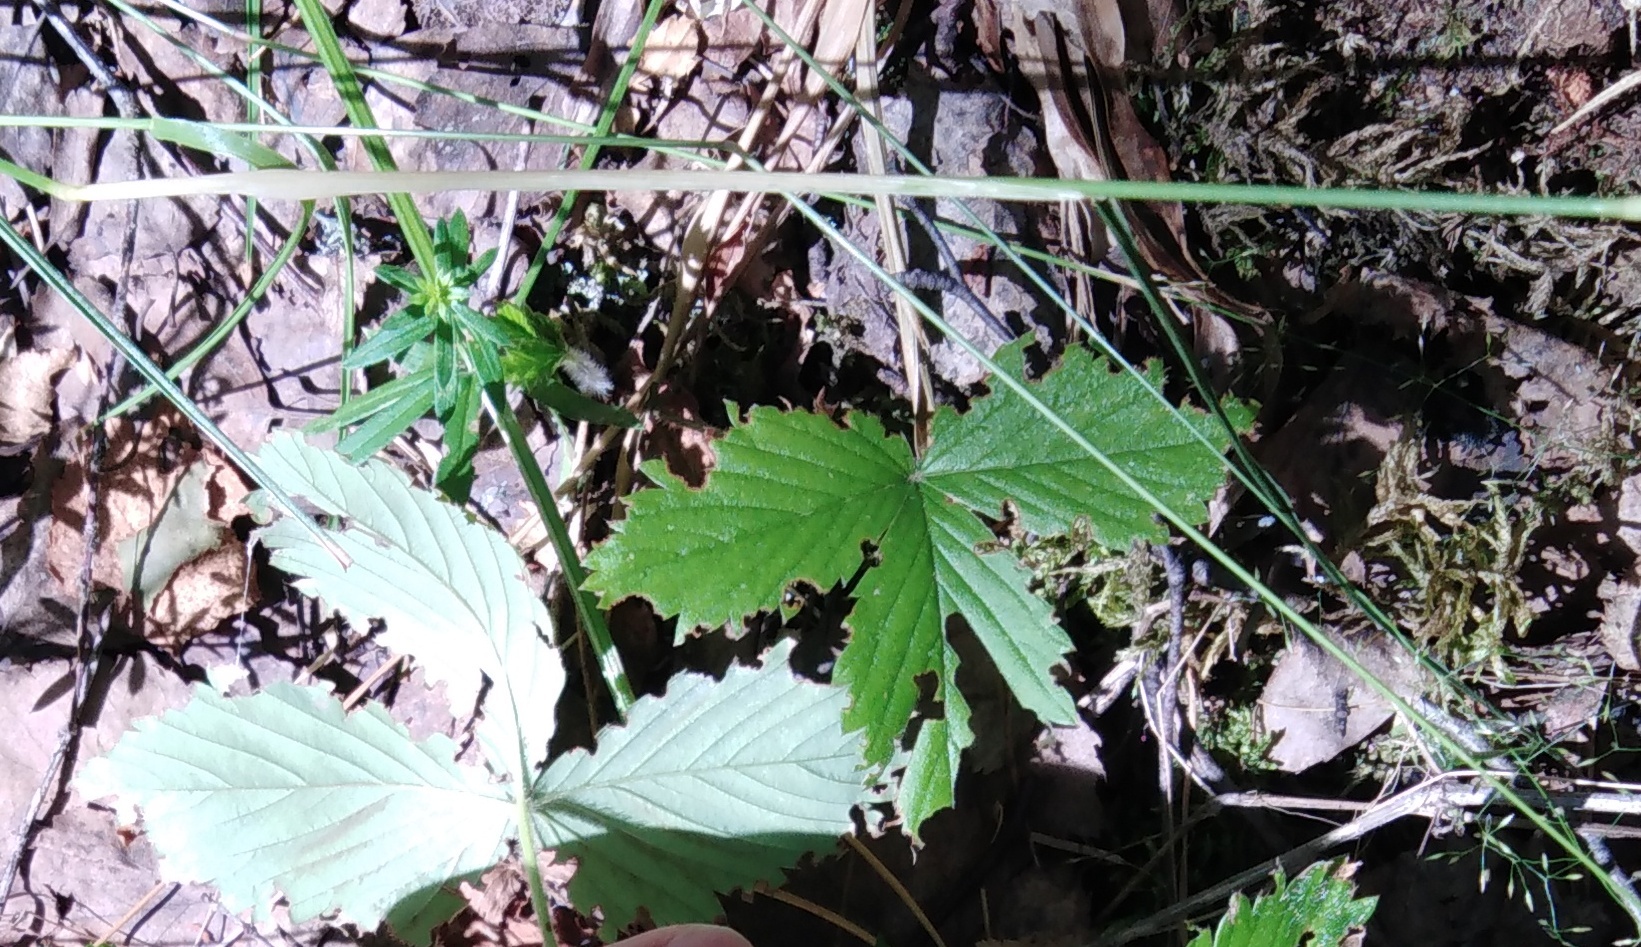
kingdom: Plantae
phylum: Tracheophyta
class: Magnoliopsida
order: Rosales
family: Rosaceae
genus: Fragaria
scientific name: Fragaria vesca
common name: Wild strawberry
